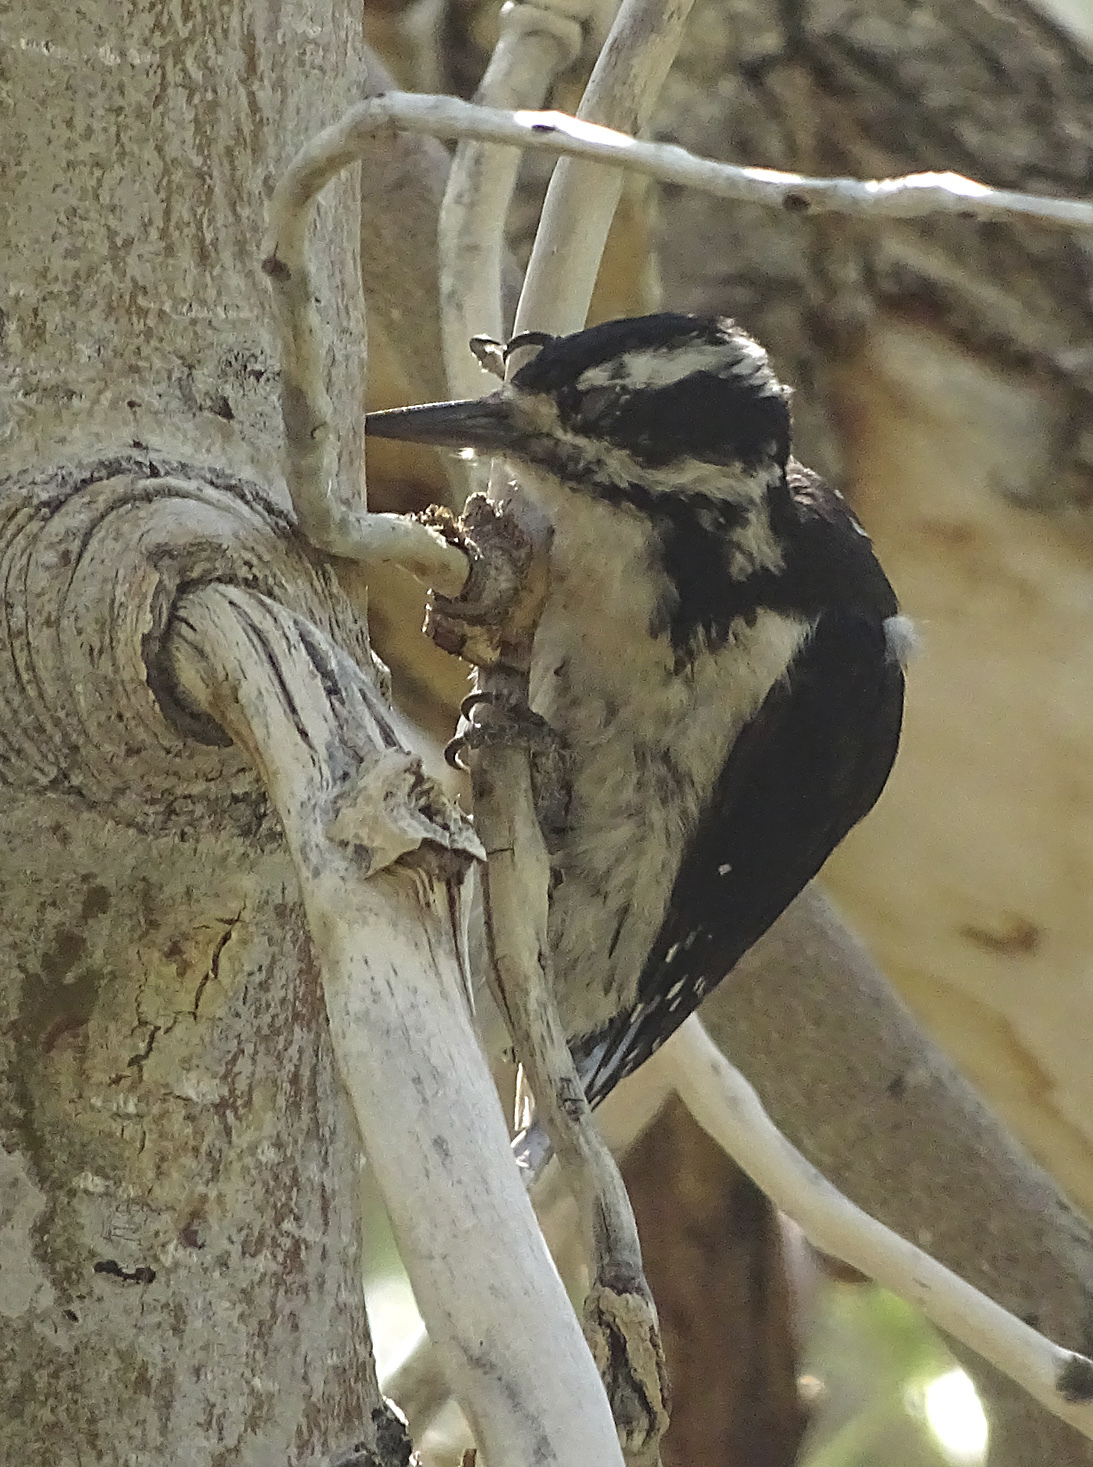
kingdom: Animalia
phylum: Chordata
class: Aves
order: Piciformes
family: Picidae
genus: Leuconotopicus
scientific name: Leuconotopicus villosus
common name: Hairy woodpecker
